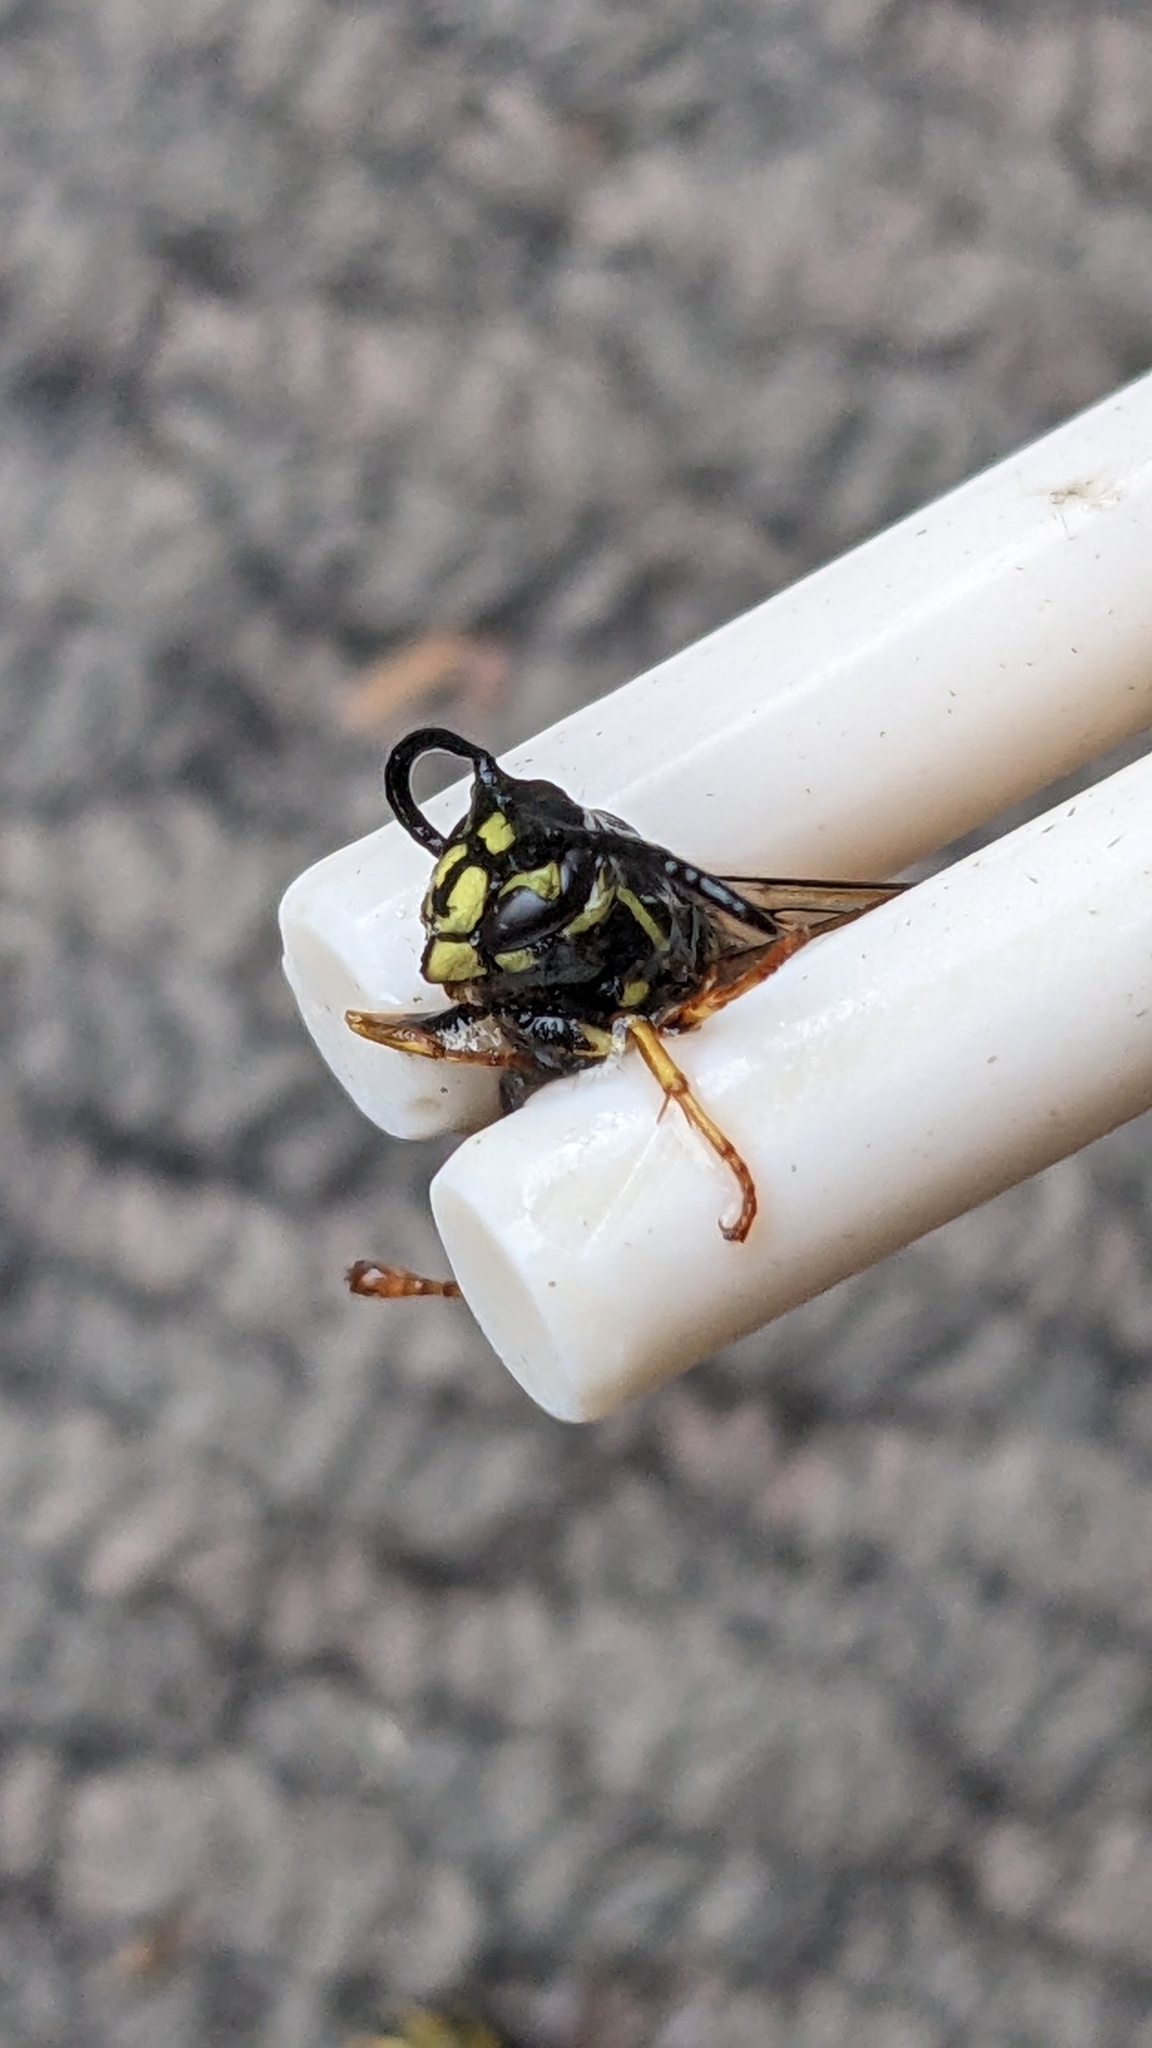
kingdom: Animalia
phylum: Arthropoda
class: Insecta
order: Hymenoptera
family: Vespidae
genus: Vespula
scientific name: Vespula vulgaris
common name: Common wasp
